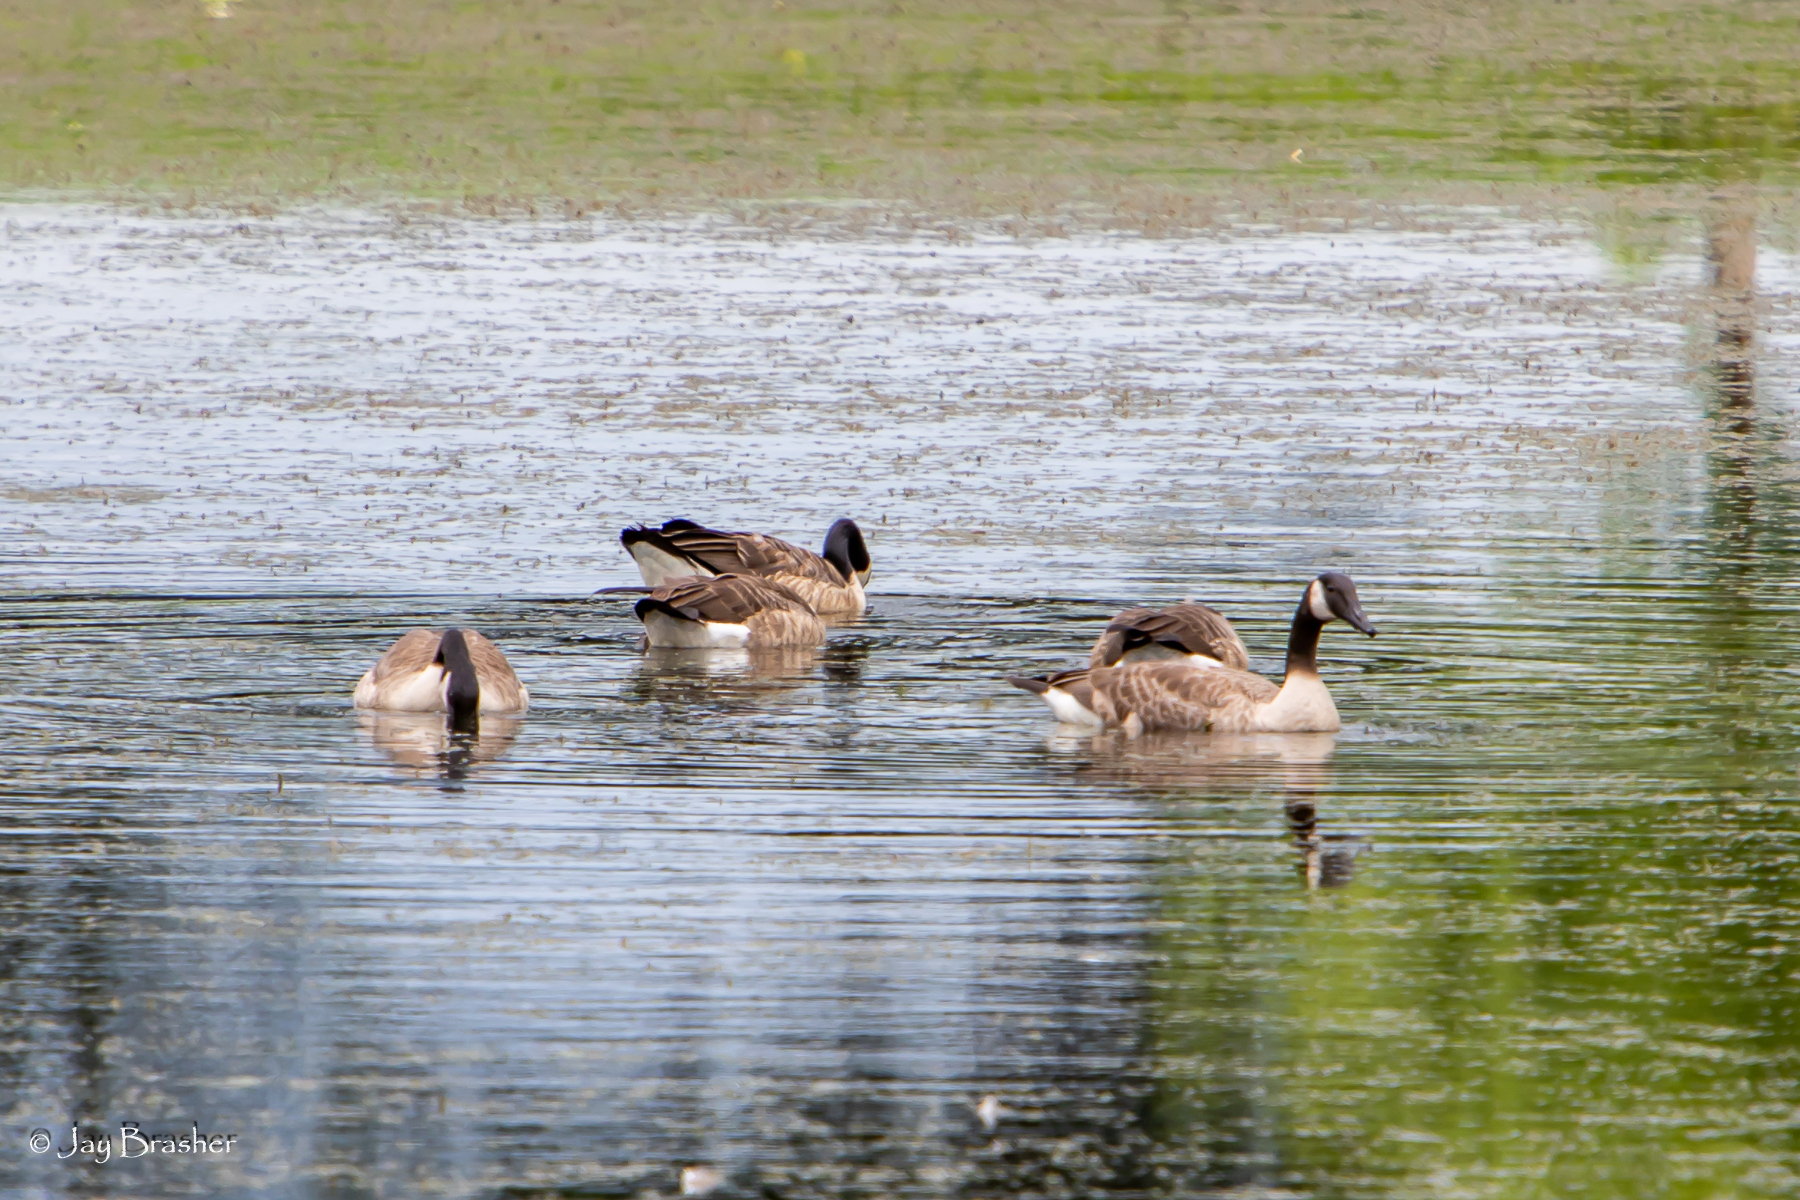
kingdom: Animalia
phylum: Chordata
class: Aves
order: Anseriformes
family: Anatidae
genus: Branta
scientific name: Branta canadensis
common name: Canada goose
